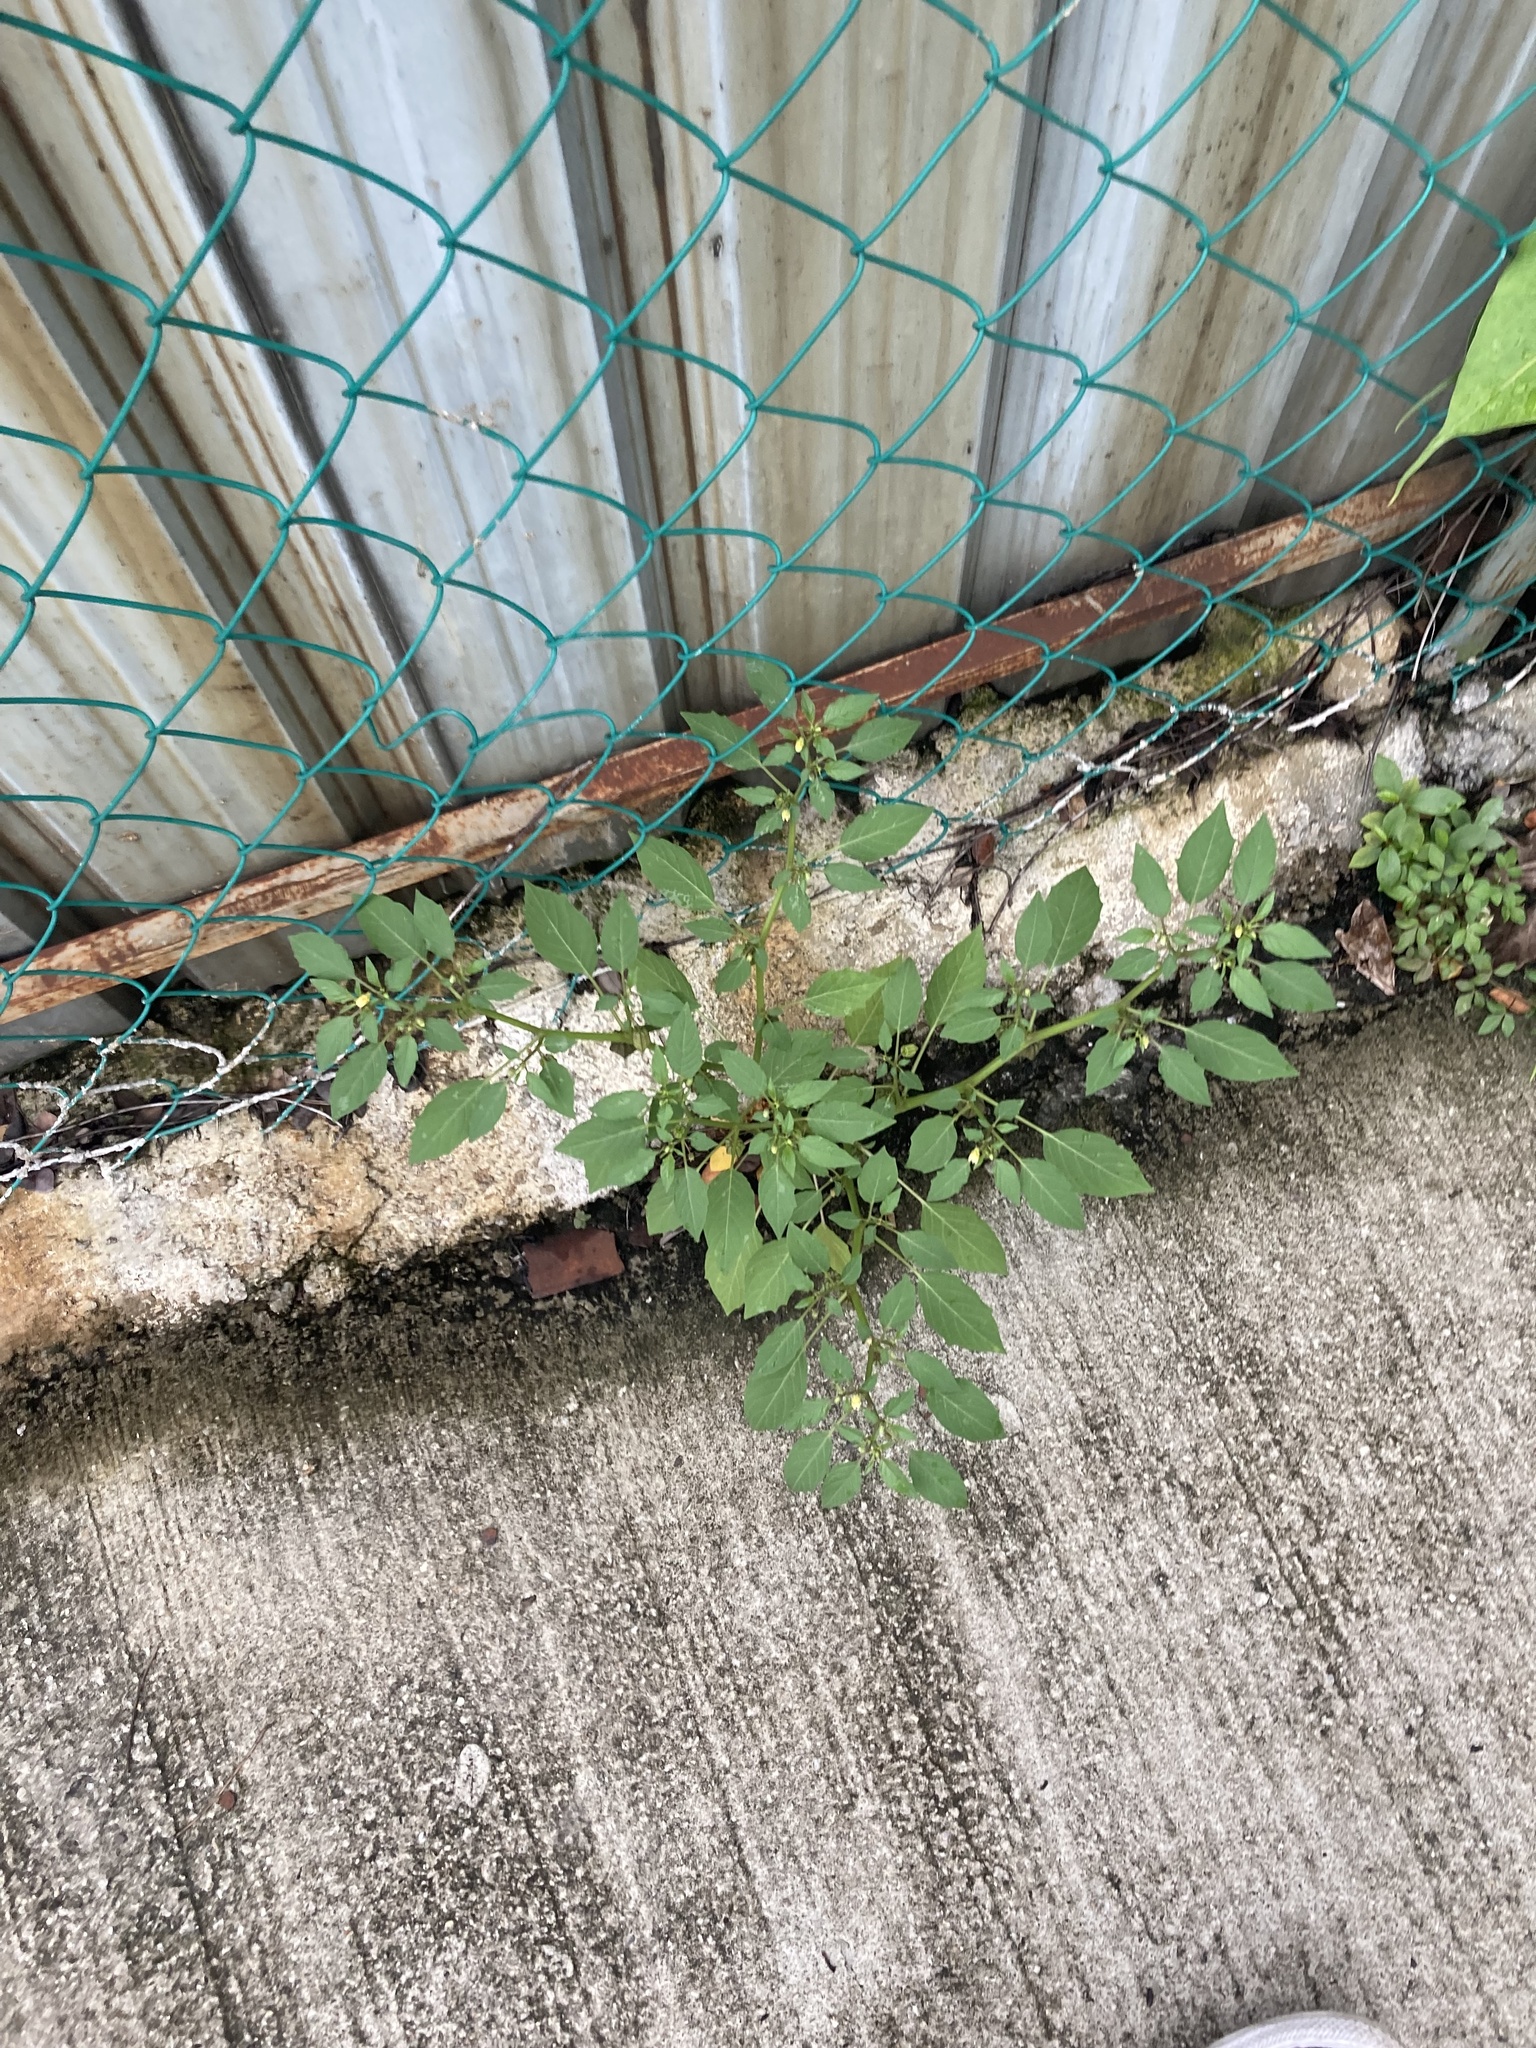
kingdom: Plantae
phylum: Tracheophyta
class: Magnoliopsida
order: Solanales
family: Solanaceae
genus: Physalis
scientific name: Physalis angulata
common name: Angular winter-cherry
